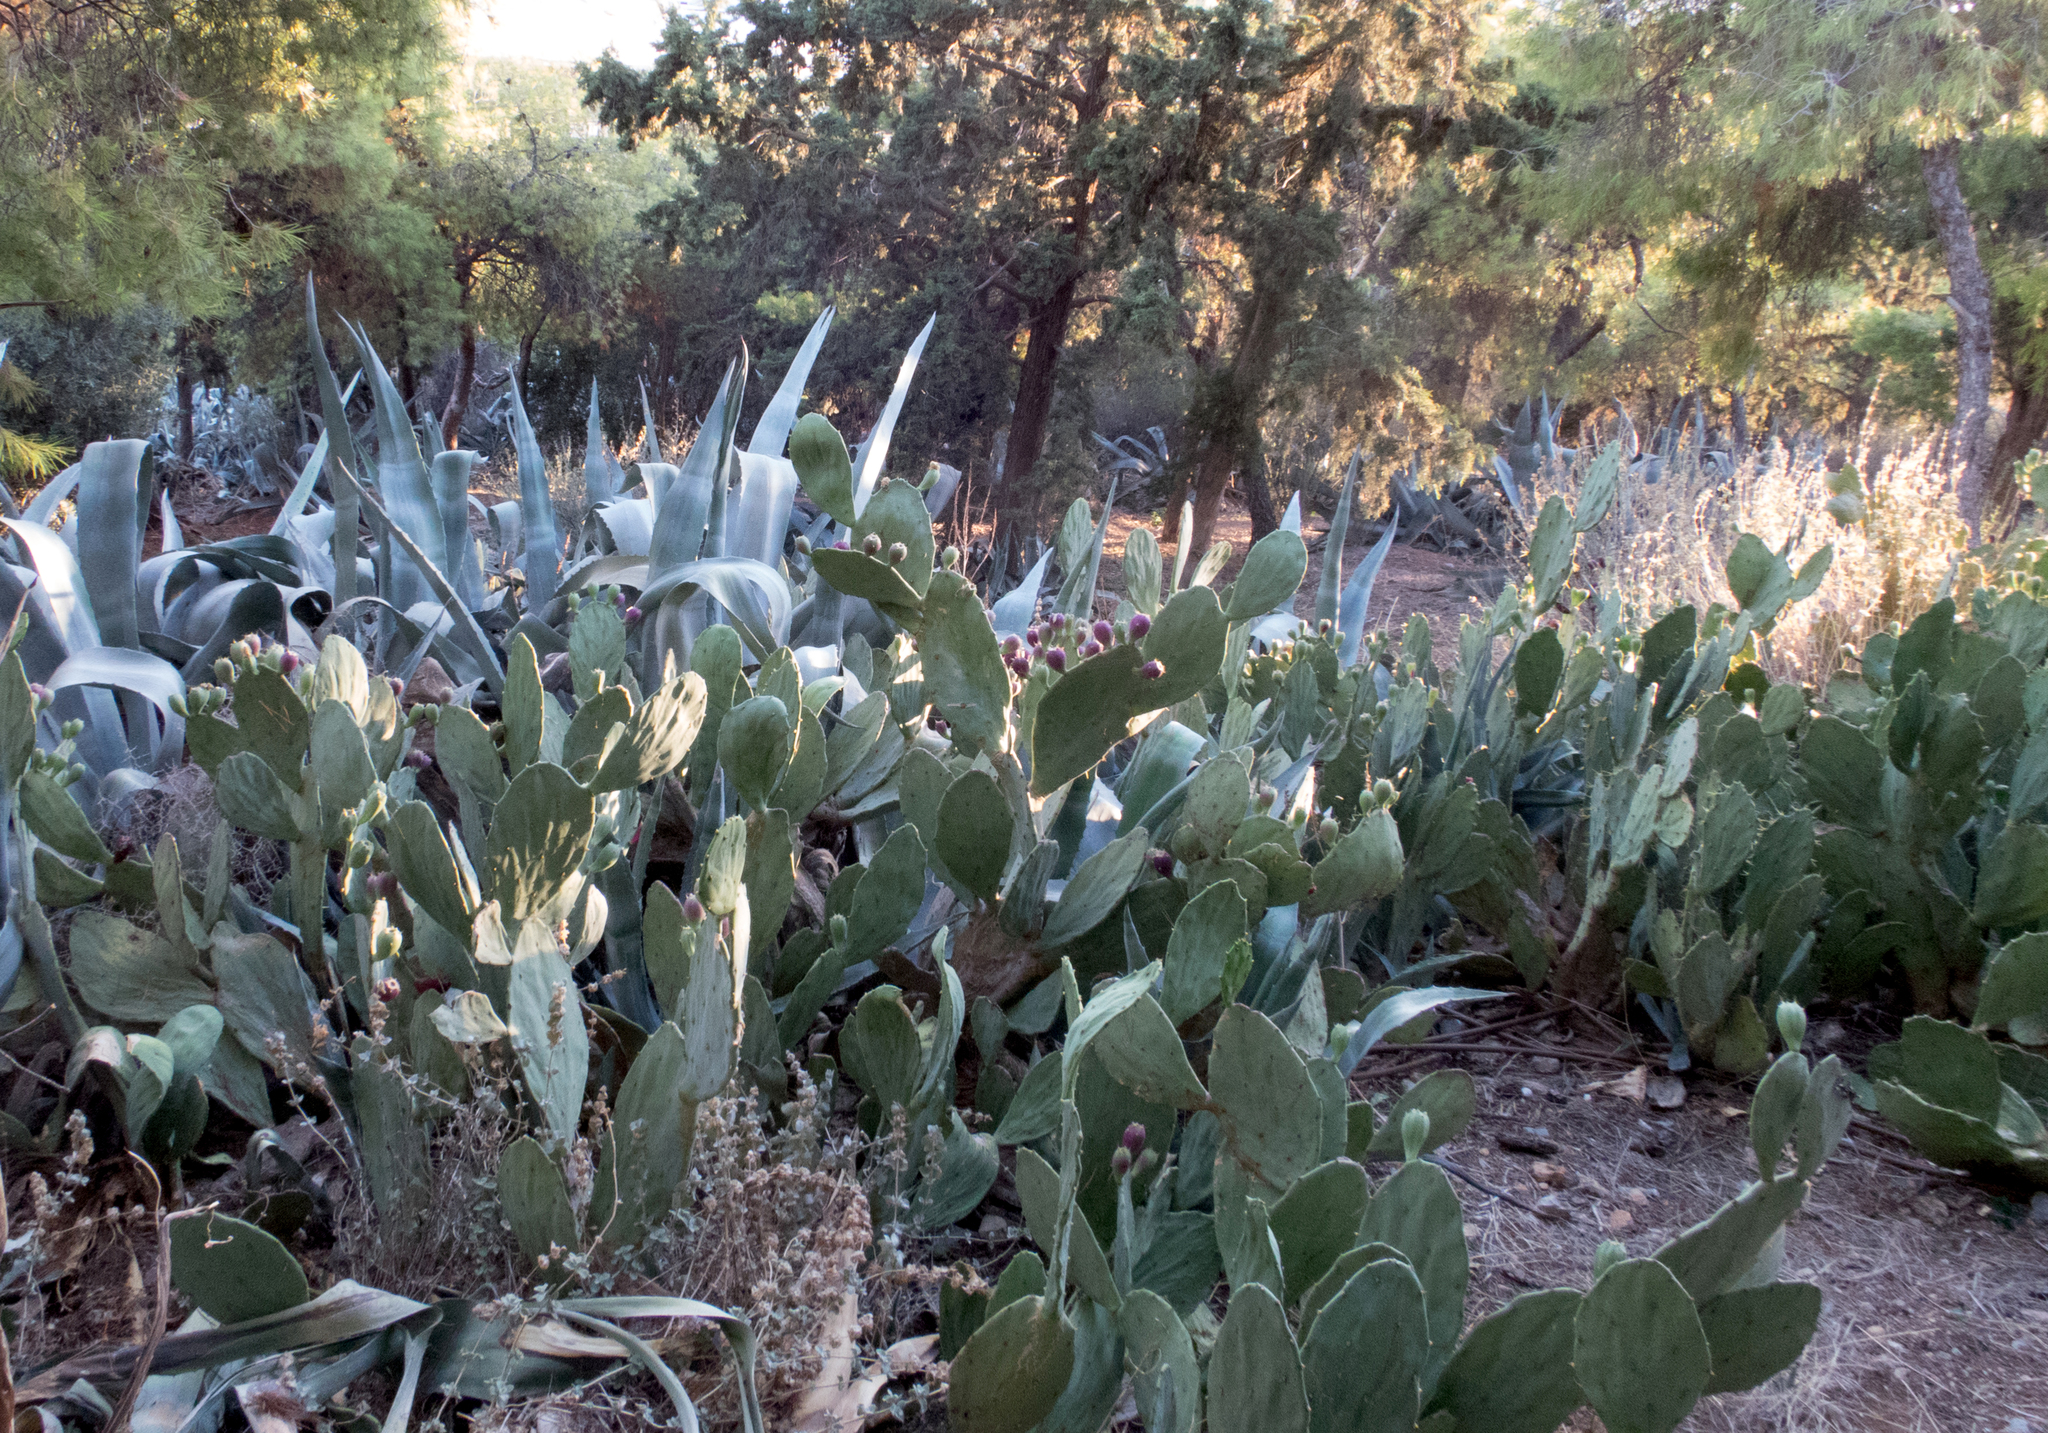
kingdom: Plantae
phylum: Tracheophyta
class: Magnoliopsida
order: Caryophyllales
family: Cactaceae
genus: Opuntia
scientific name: Opuntia ficus-indica
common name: Barbary fig
